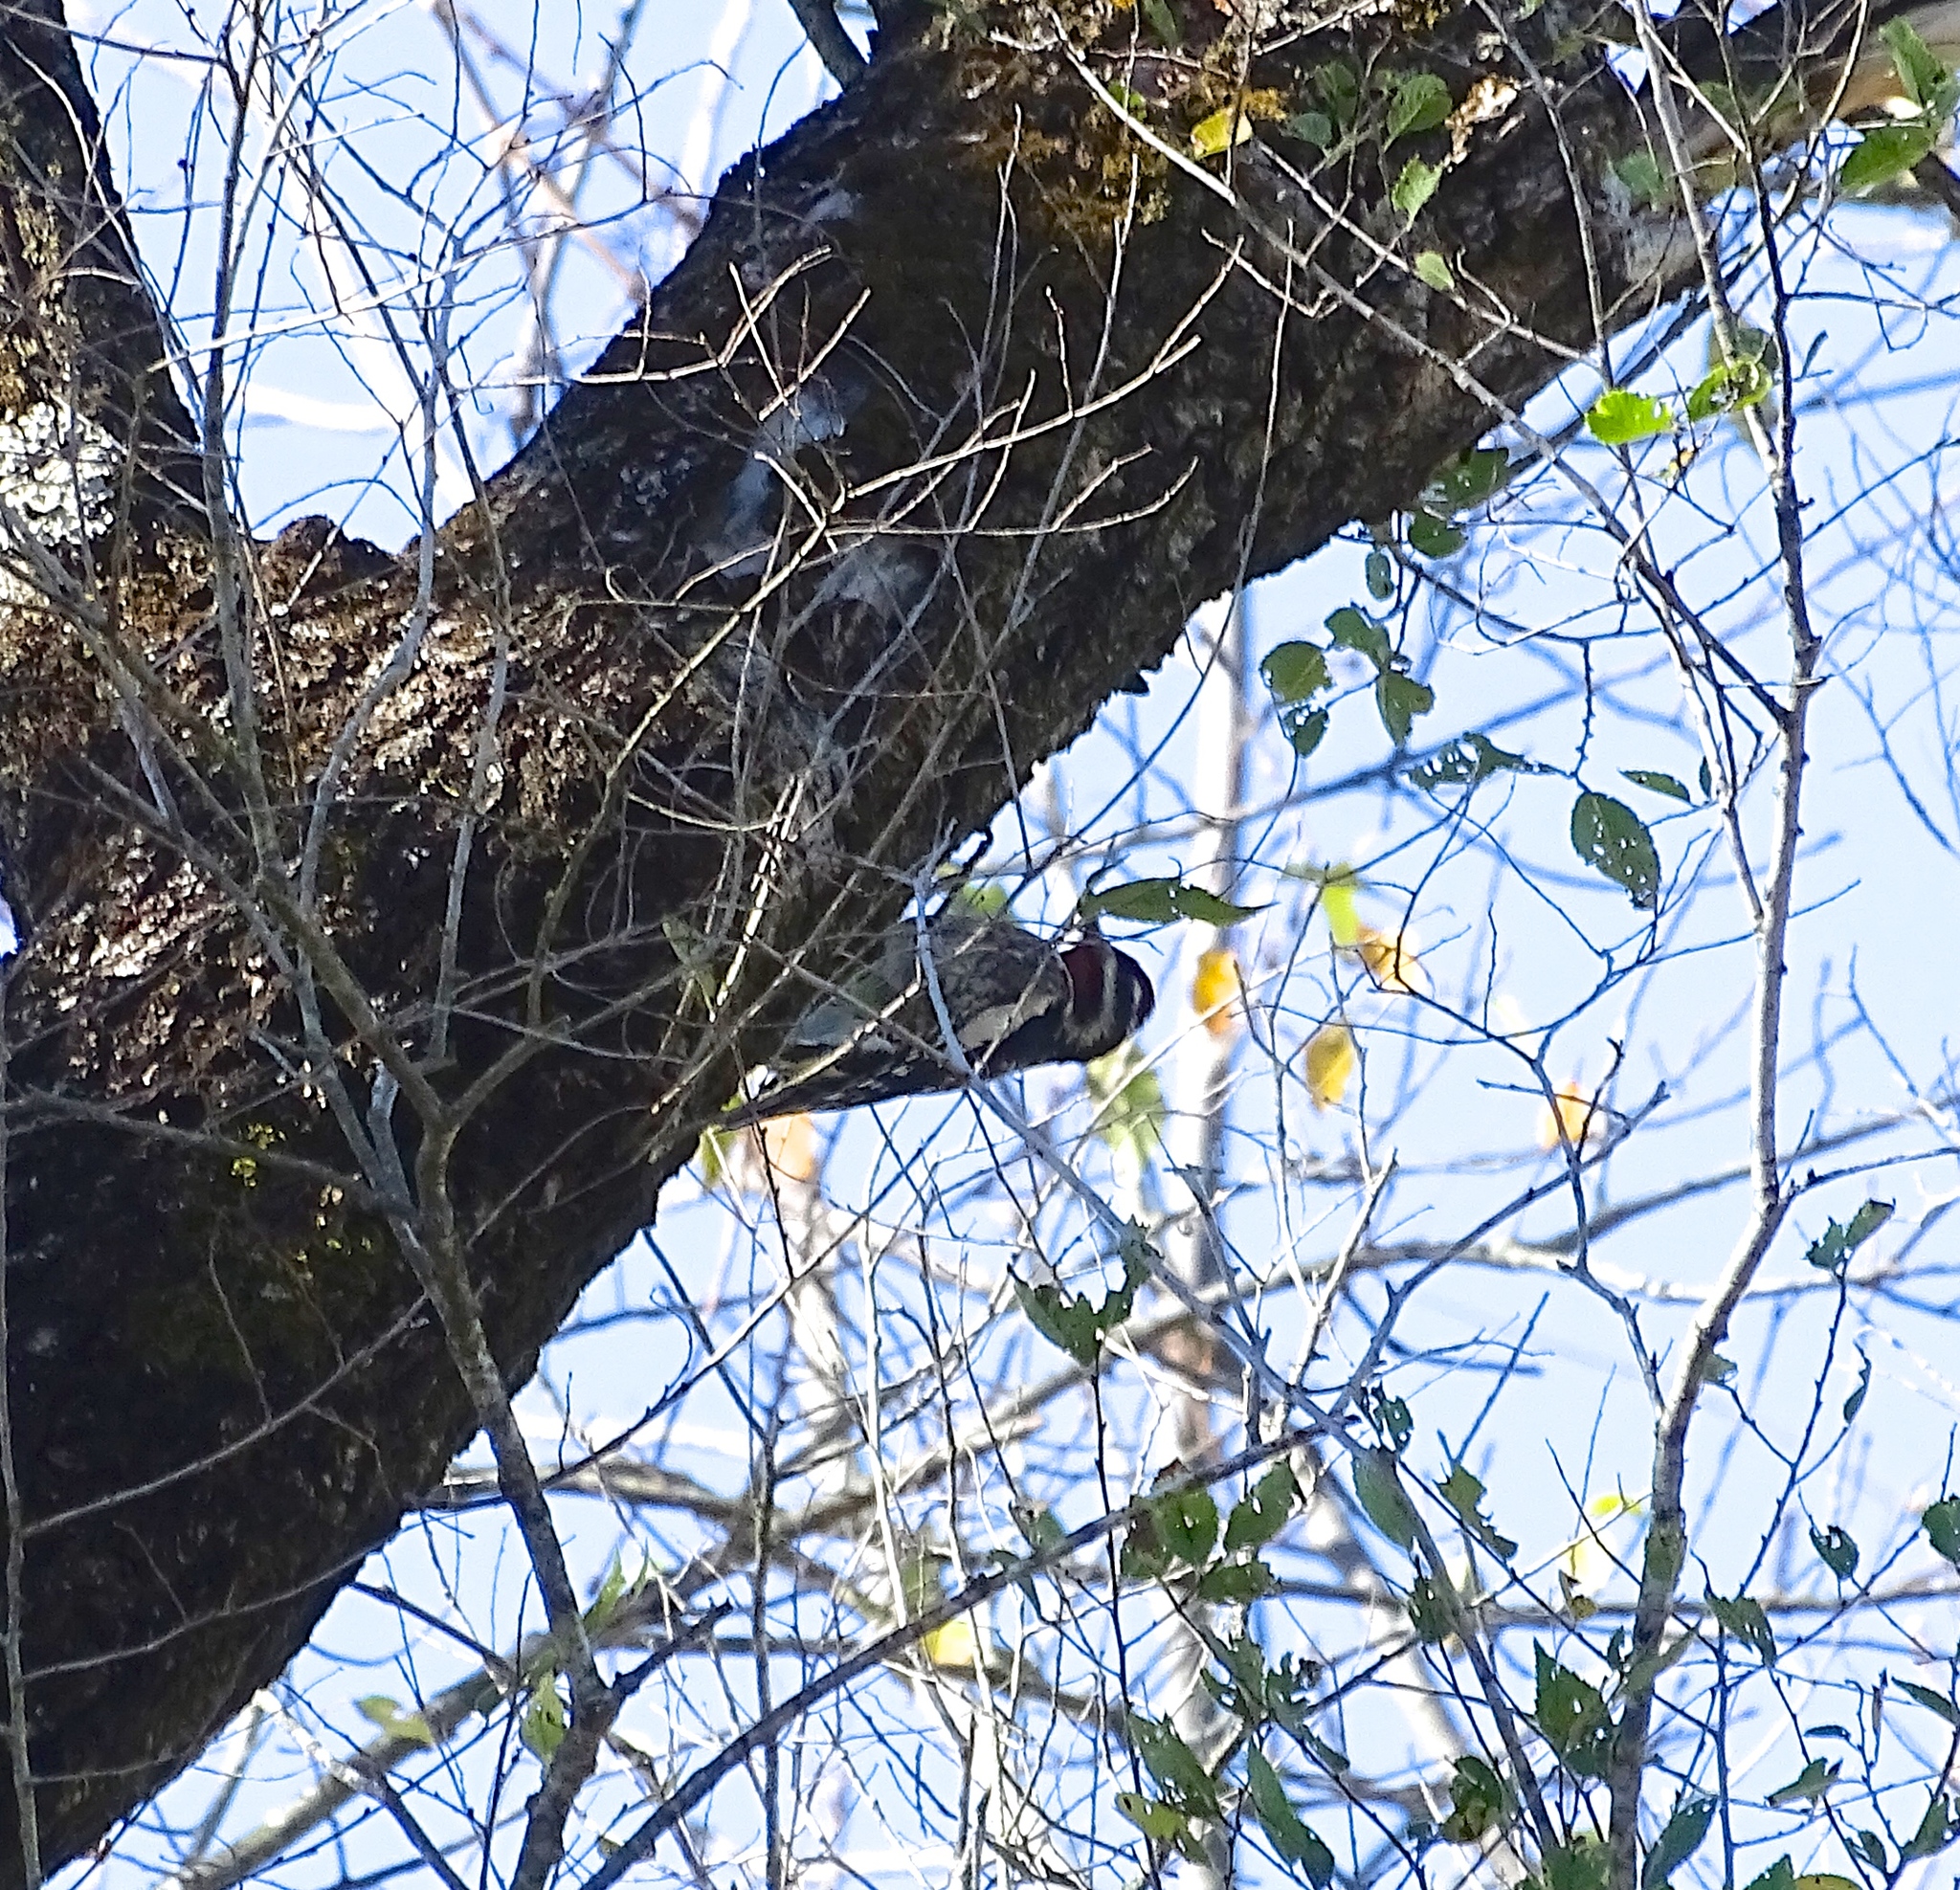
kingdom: Animalia
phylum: Chordata
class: Aves
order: Piciformes
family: Picidae
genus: Sphyrapicus
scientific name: Sphyrapicus varius
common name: Yellow-bellied sapsucker
